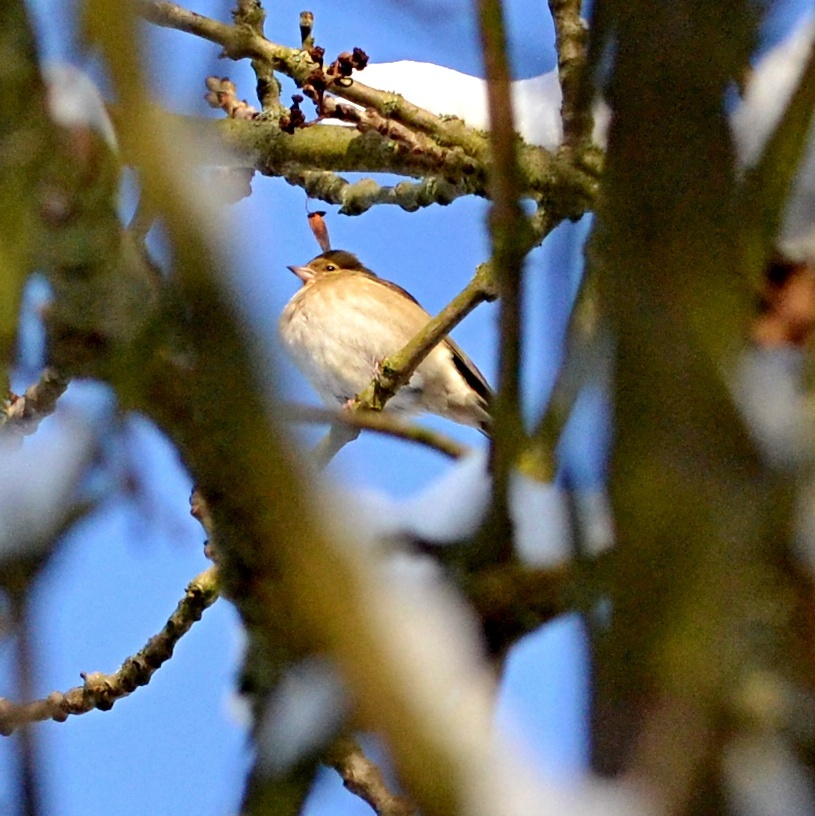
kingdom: Animalia
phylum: Chordata
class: Aves
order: Passeriformes
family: Fringillidae
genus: Fringilla
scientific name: Fringilla coelebs
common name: Common chaffinch
